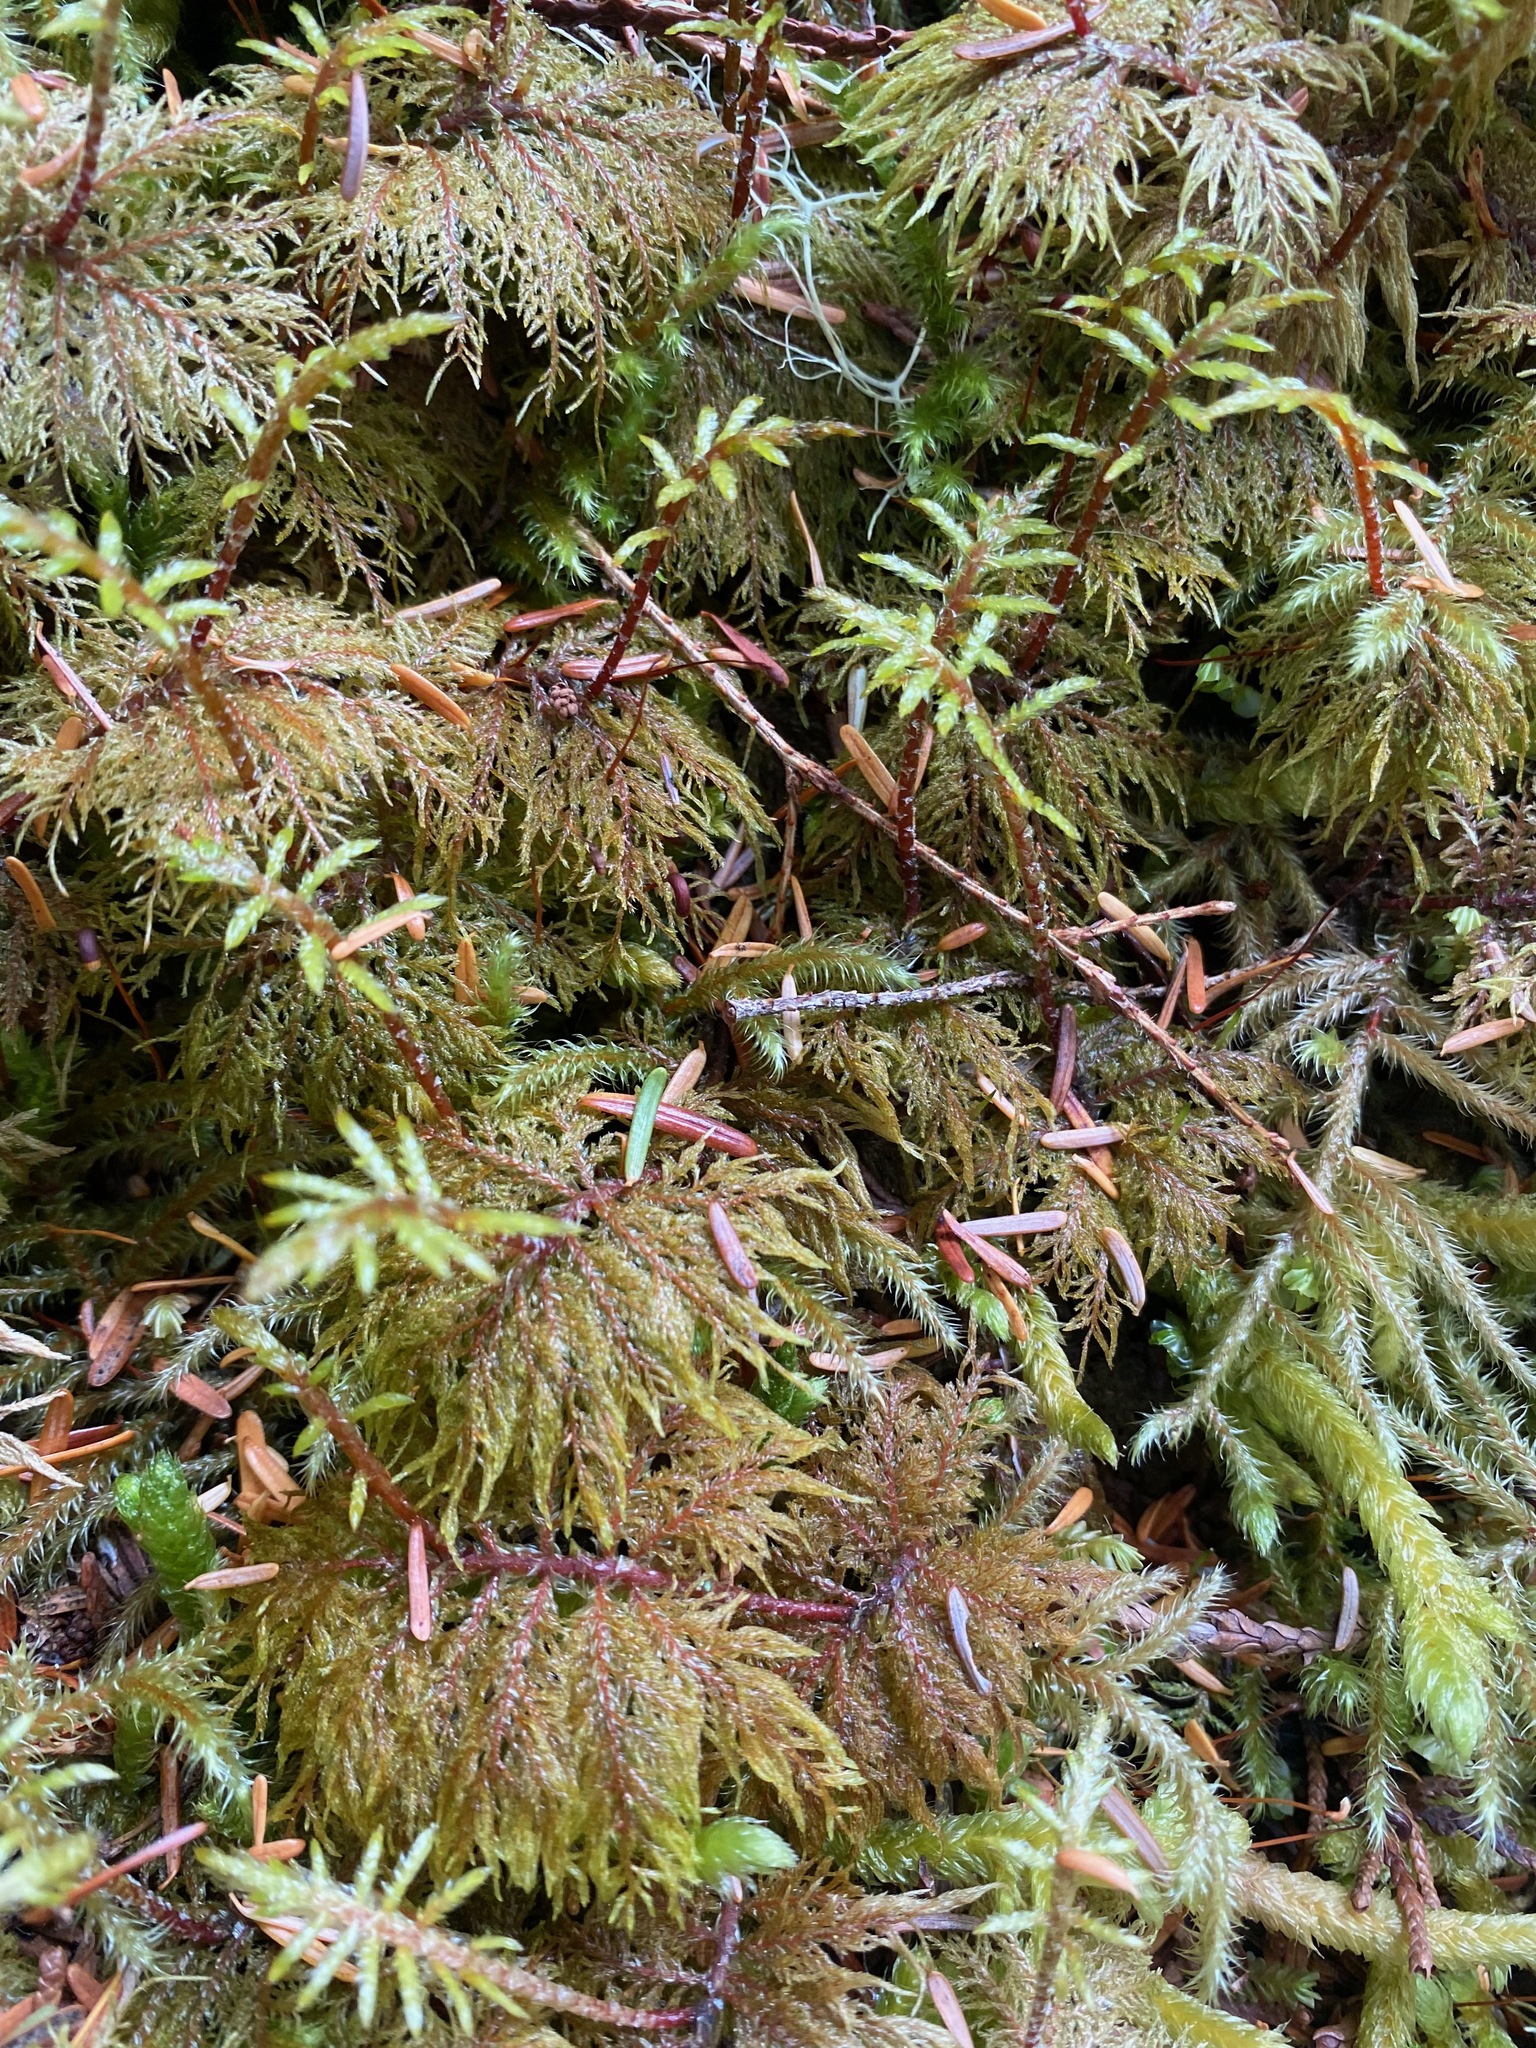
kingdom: Plantae
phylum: Bryophyta
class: Bryopsida
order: Hypnales
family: Hylocomiaceae
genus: Hylocomium
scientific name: Hylocomium splendens
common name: Stairstep moss
